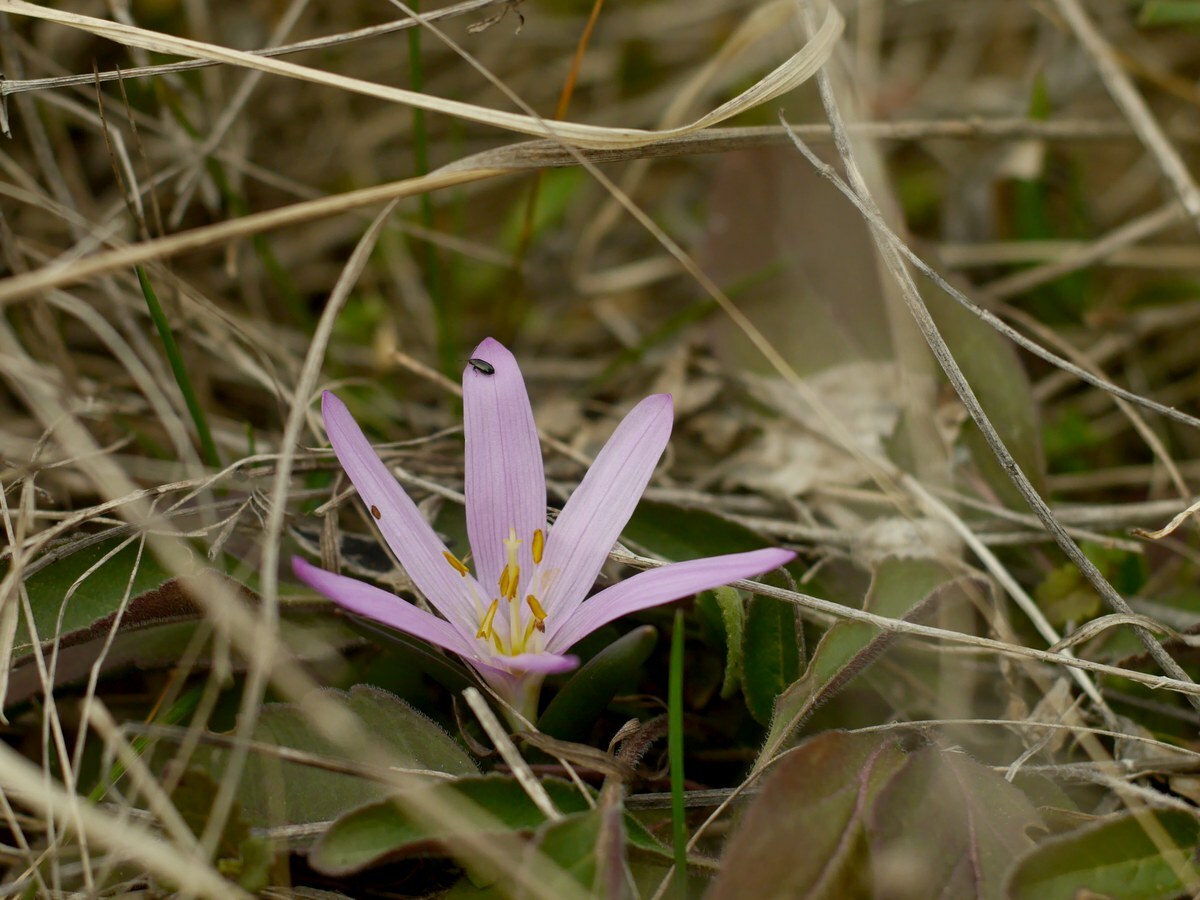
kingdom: Plantae
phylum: Tracheophyta
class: Liliopsida
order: Liliales
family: Colchicaceae
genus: Colchicum
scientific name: Colchicum bulbocodium
